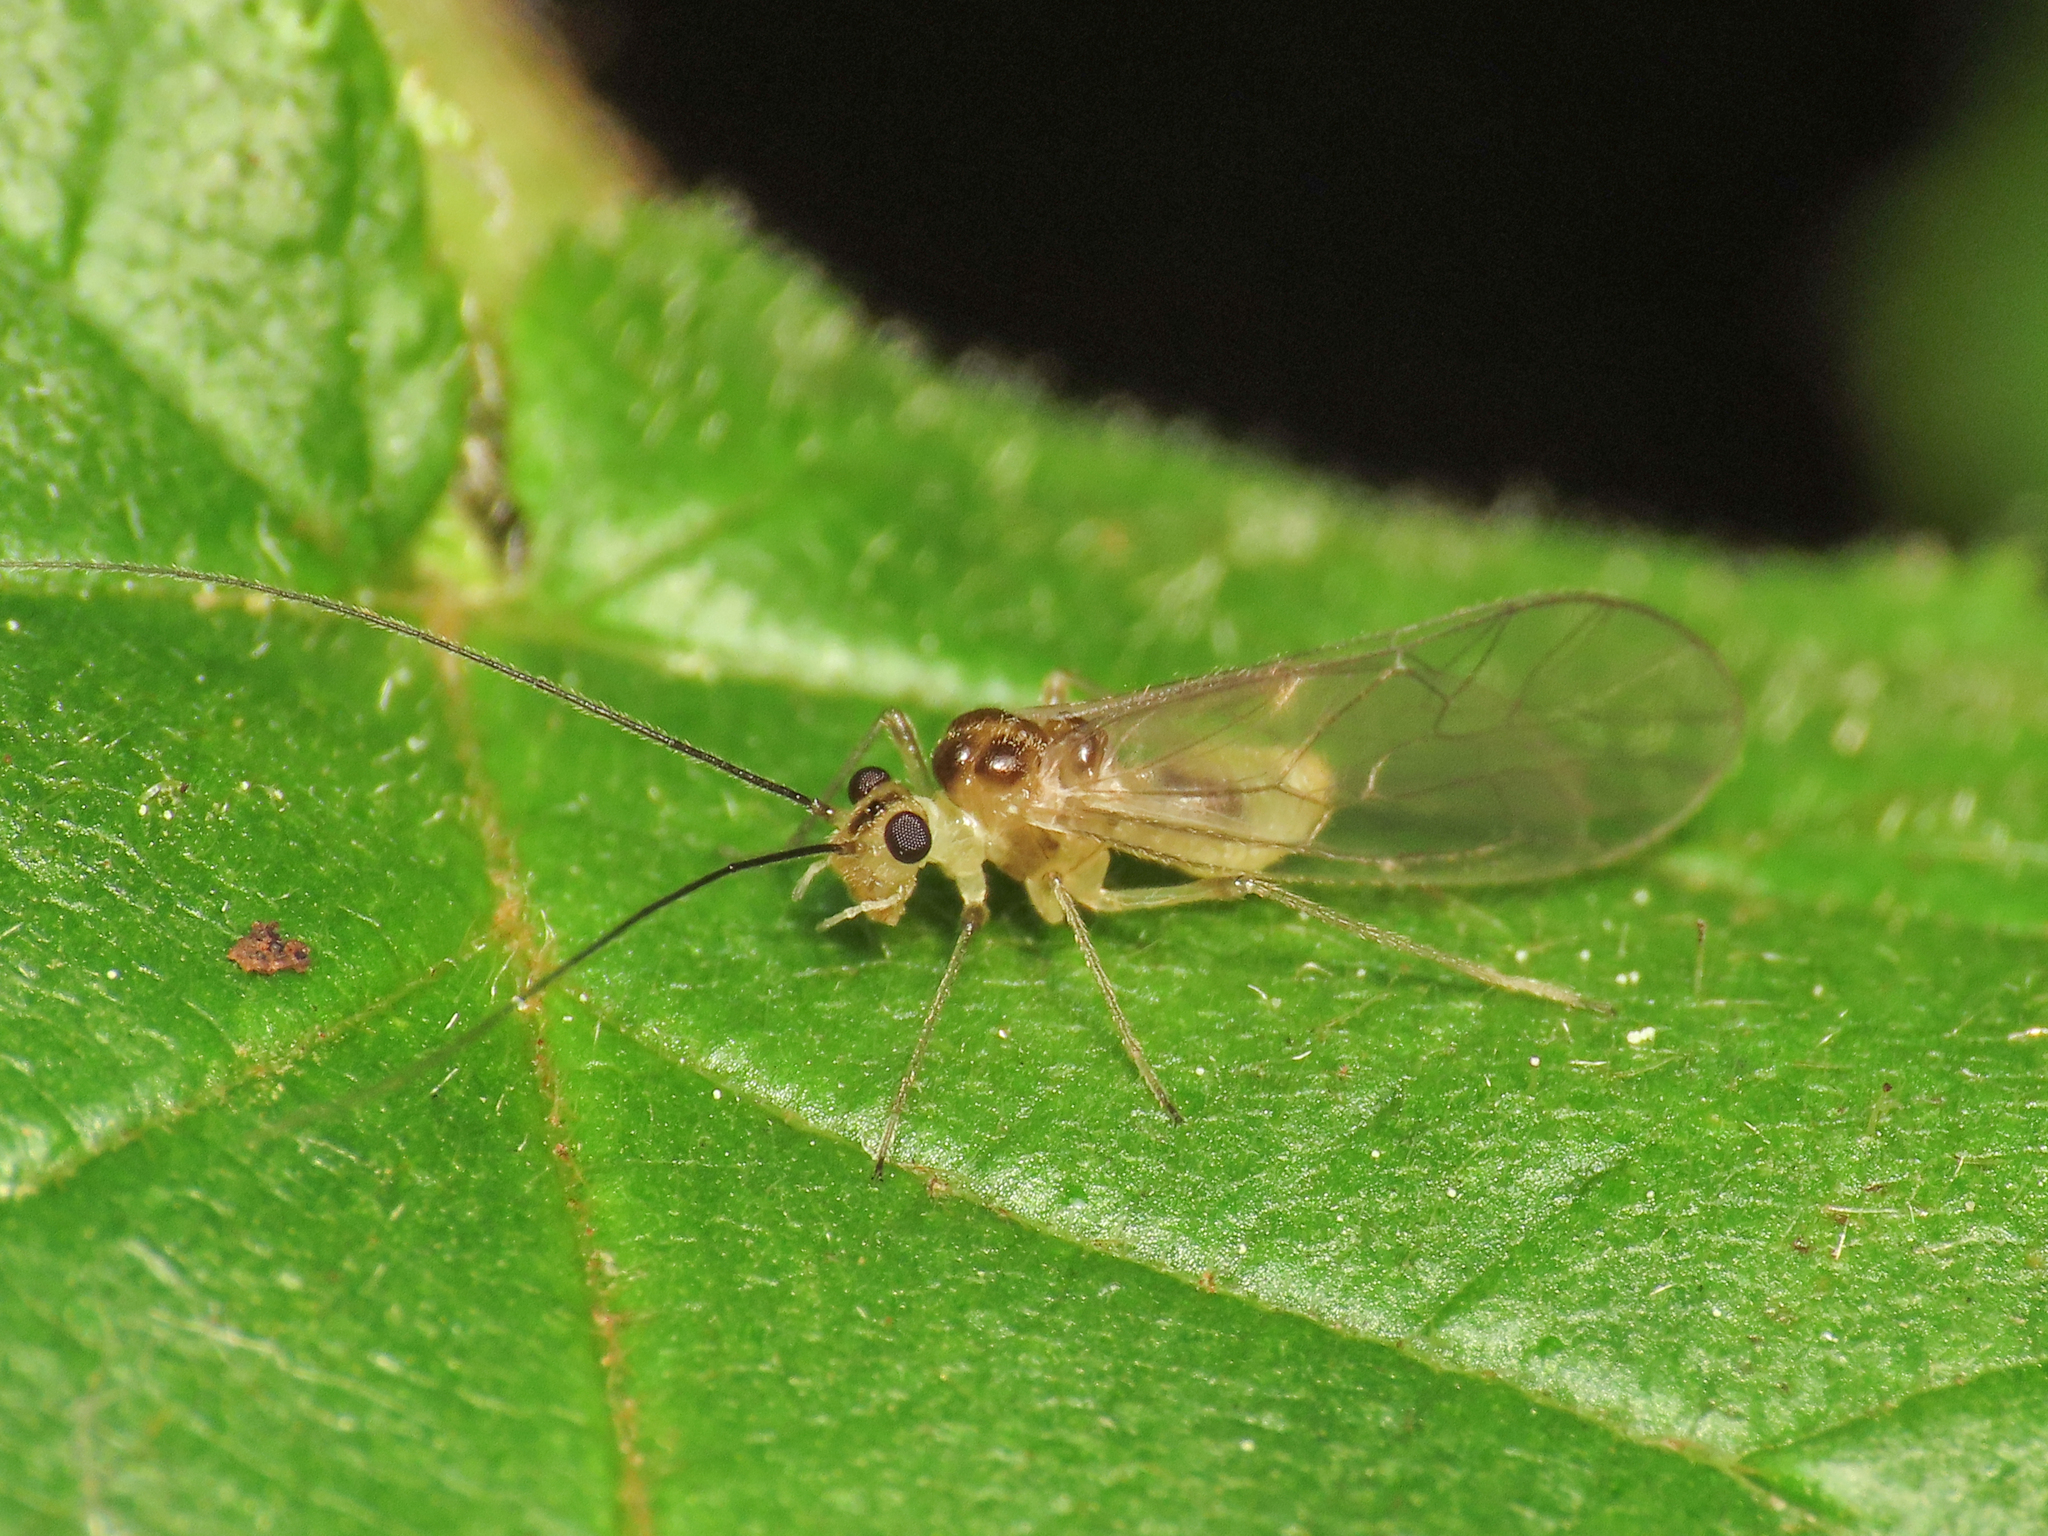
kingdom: Animalia
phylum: Arthropoda
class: Insecta
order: Psocodea
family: Stenopsocidae
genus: Stenopsocus
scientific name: Stenopsocus immaculatus
